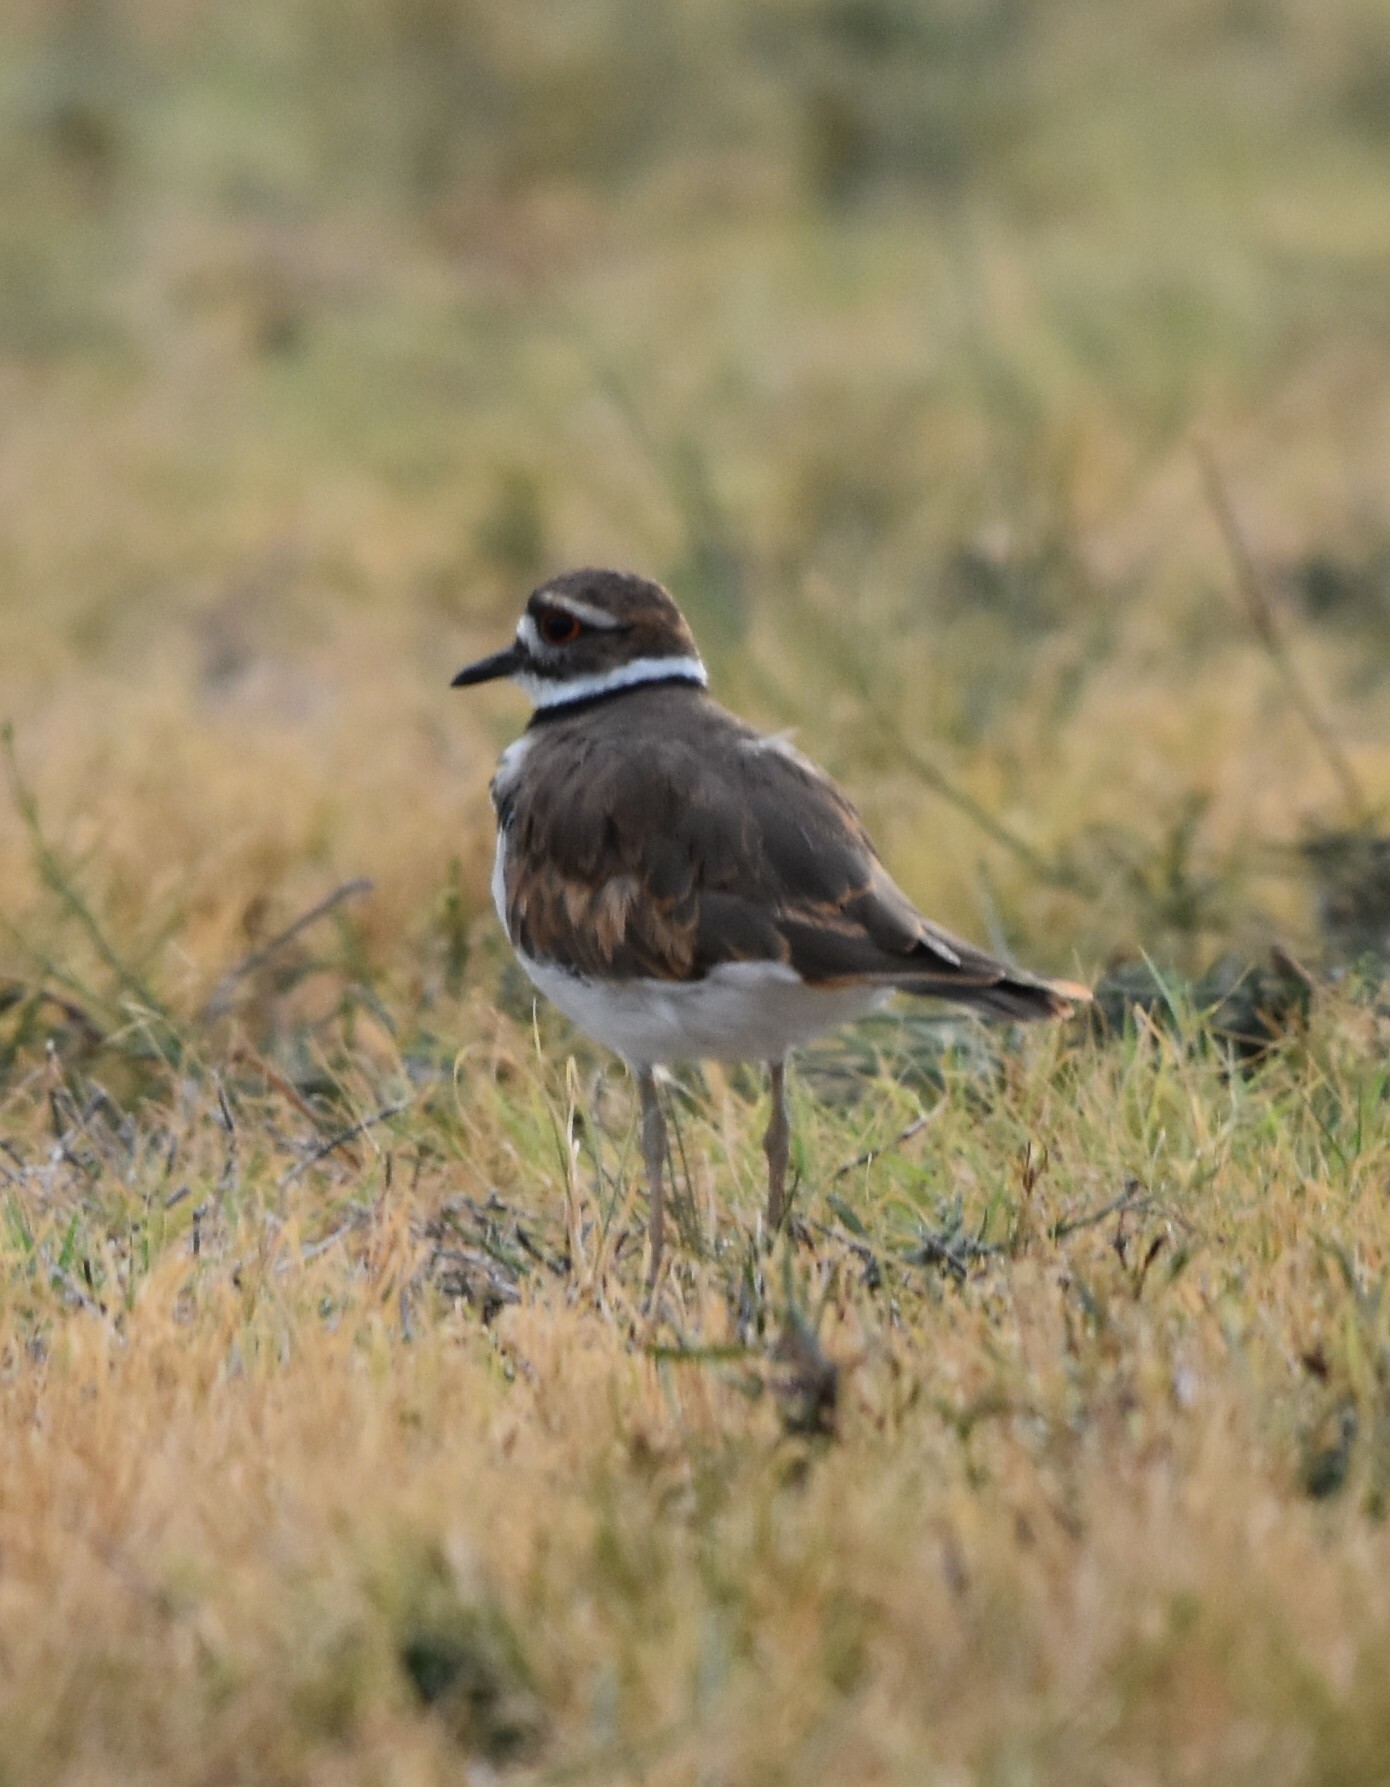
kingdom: Animalia
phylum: Chordata
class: Aves
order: Charadriiformes
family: Charadriidae
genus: Charadrius
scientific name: Charadrius vociferus
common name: Killdeer
